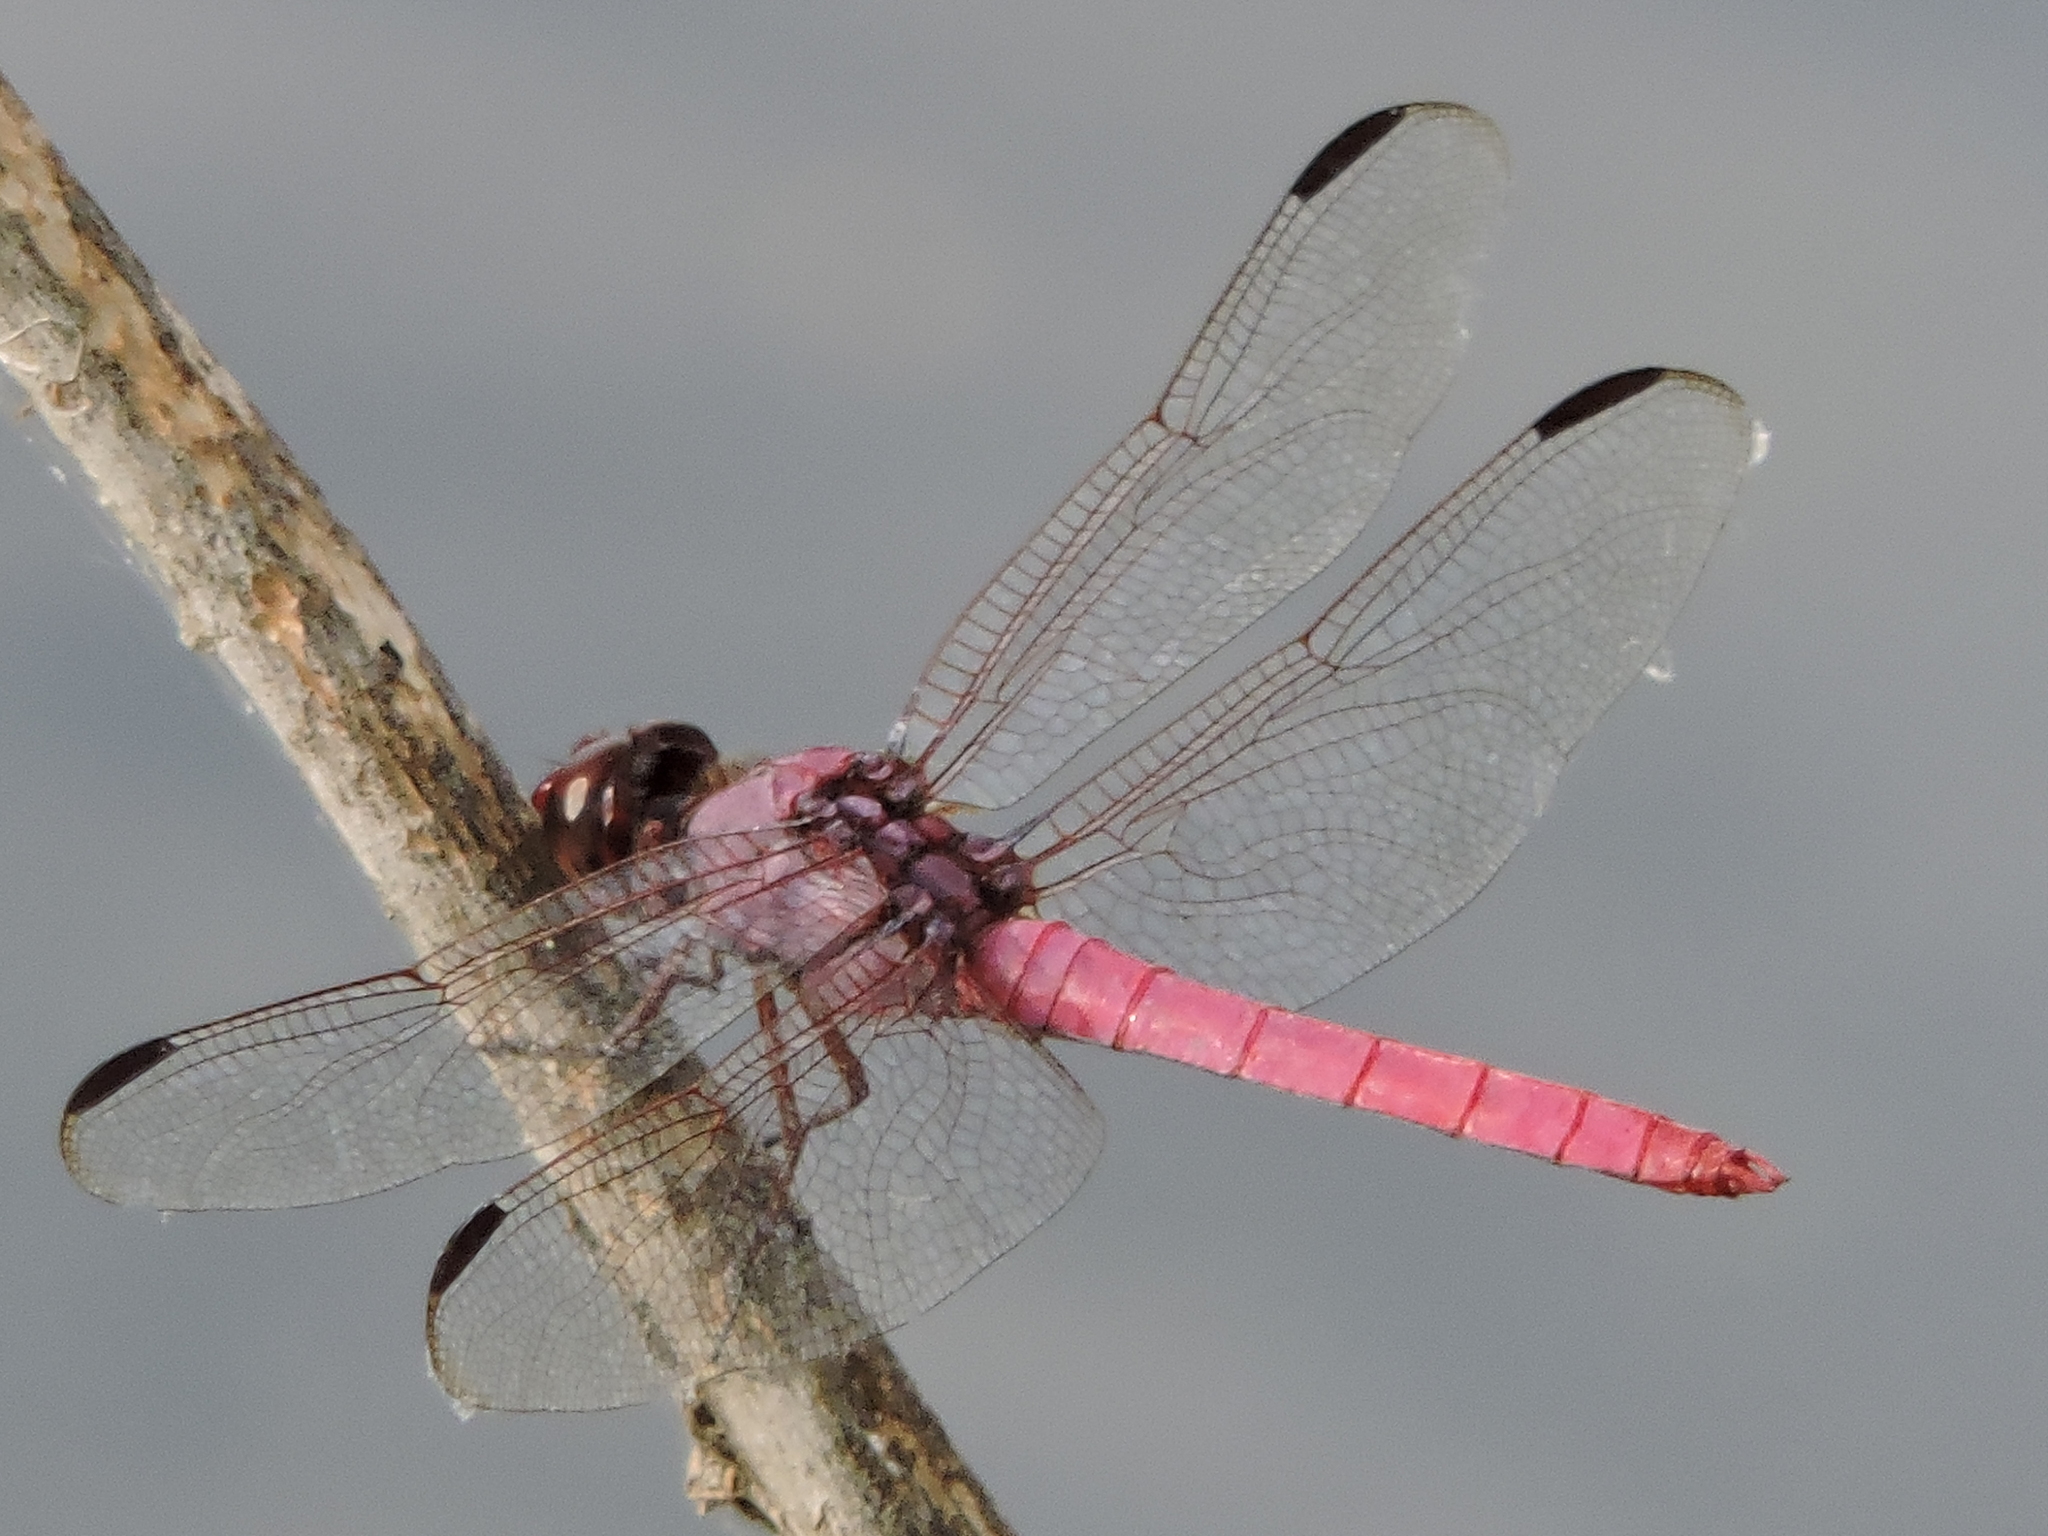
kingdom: Animalia
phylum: Arthropoda
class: Insecta
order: Odonata
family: Libellulidae
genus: Orthemis
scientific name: Orthemis ferruginea
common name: Roseate skimmer
